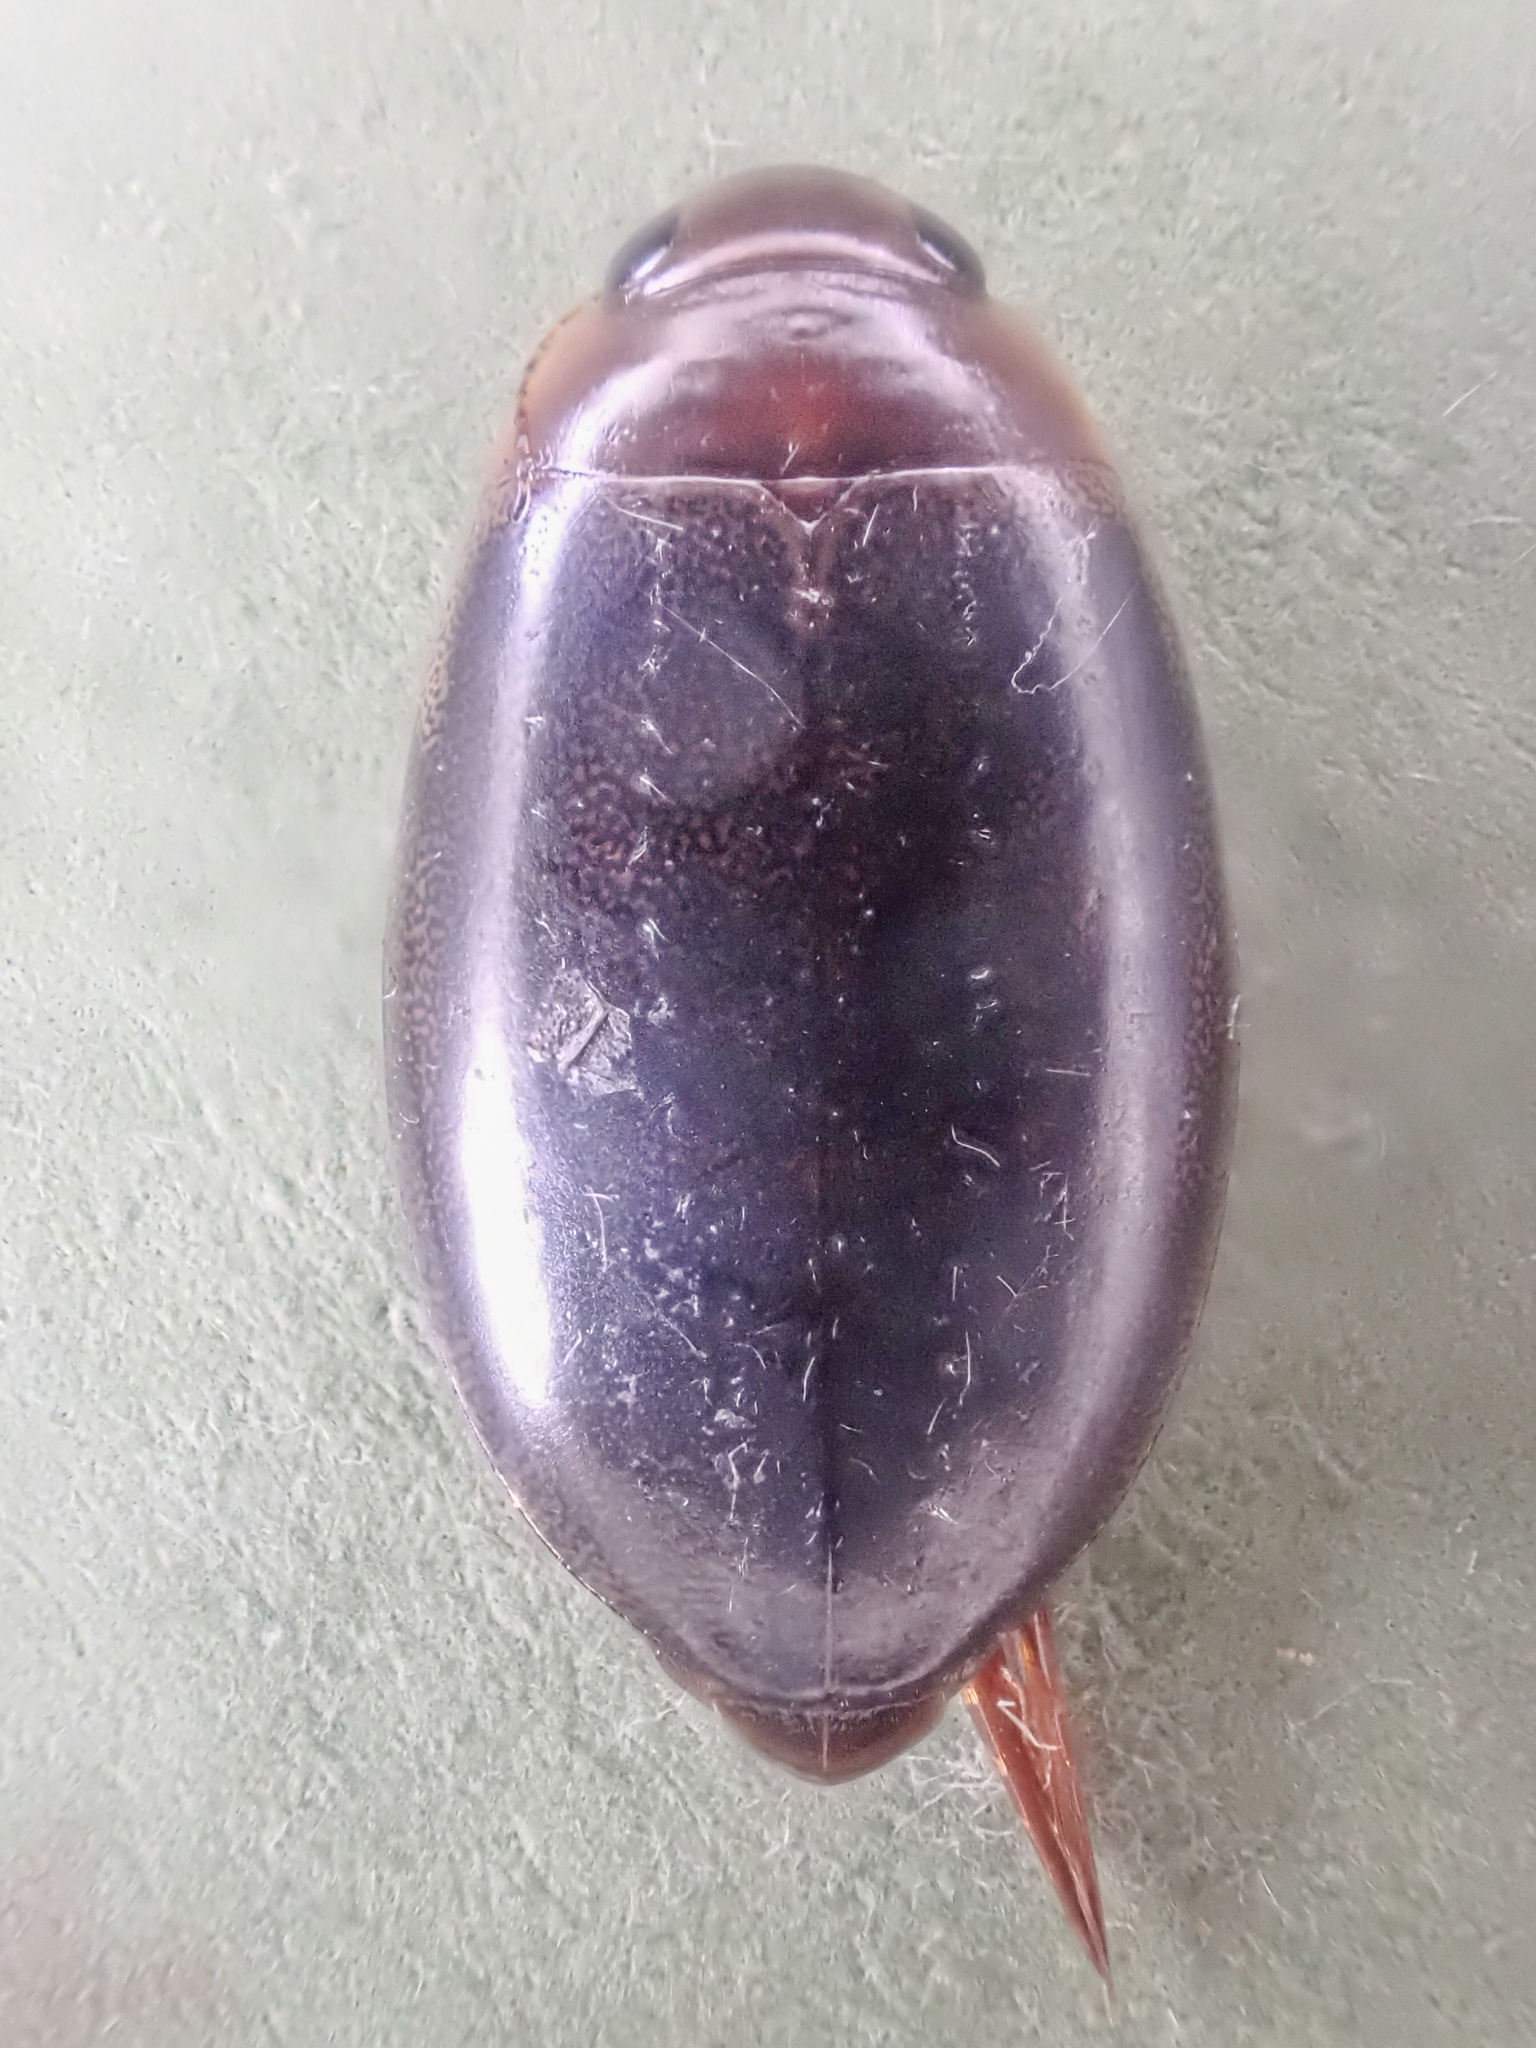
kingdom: Animalia
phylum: Arthropoda
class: Insecta
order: Coleoptera
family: Dytiscidae
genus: Graphoderus
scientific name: Graphoderus liberus
